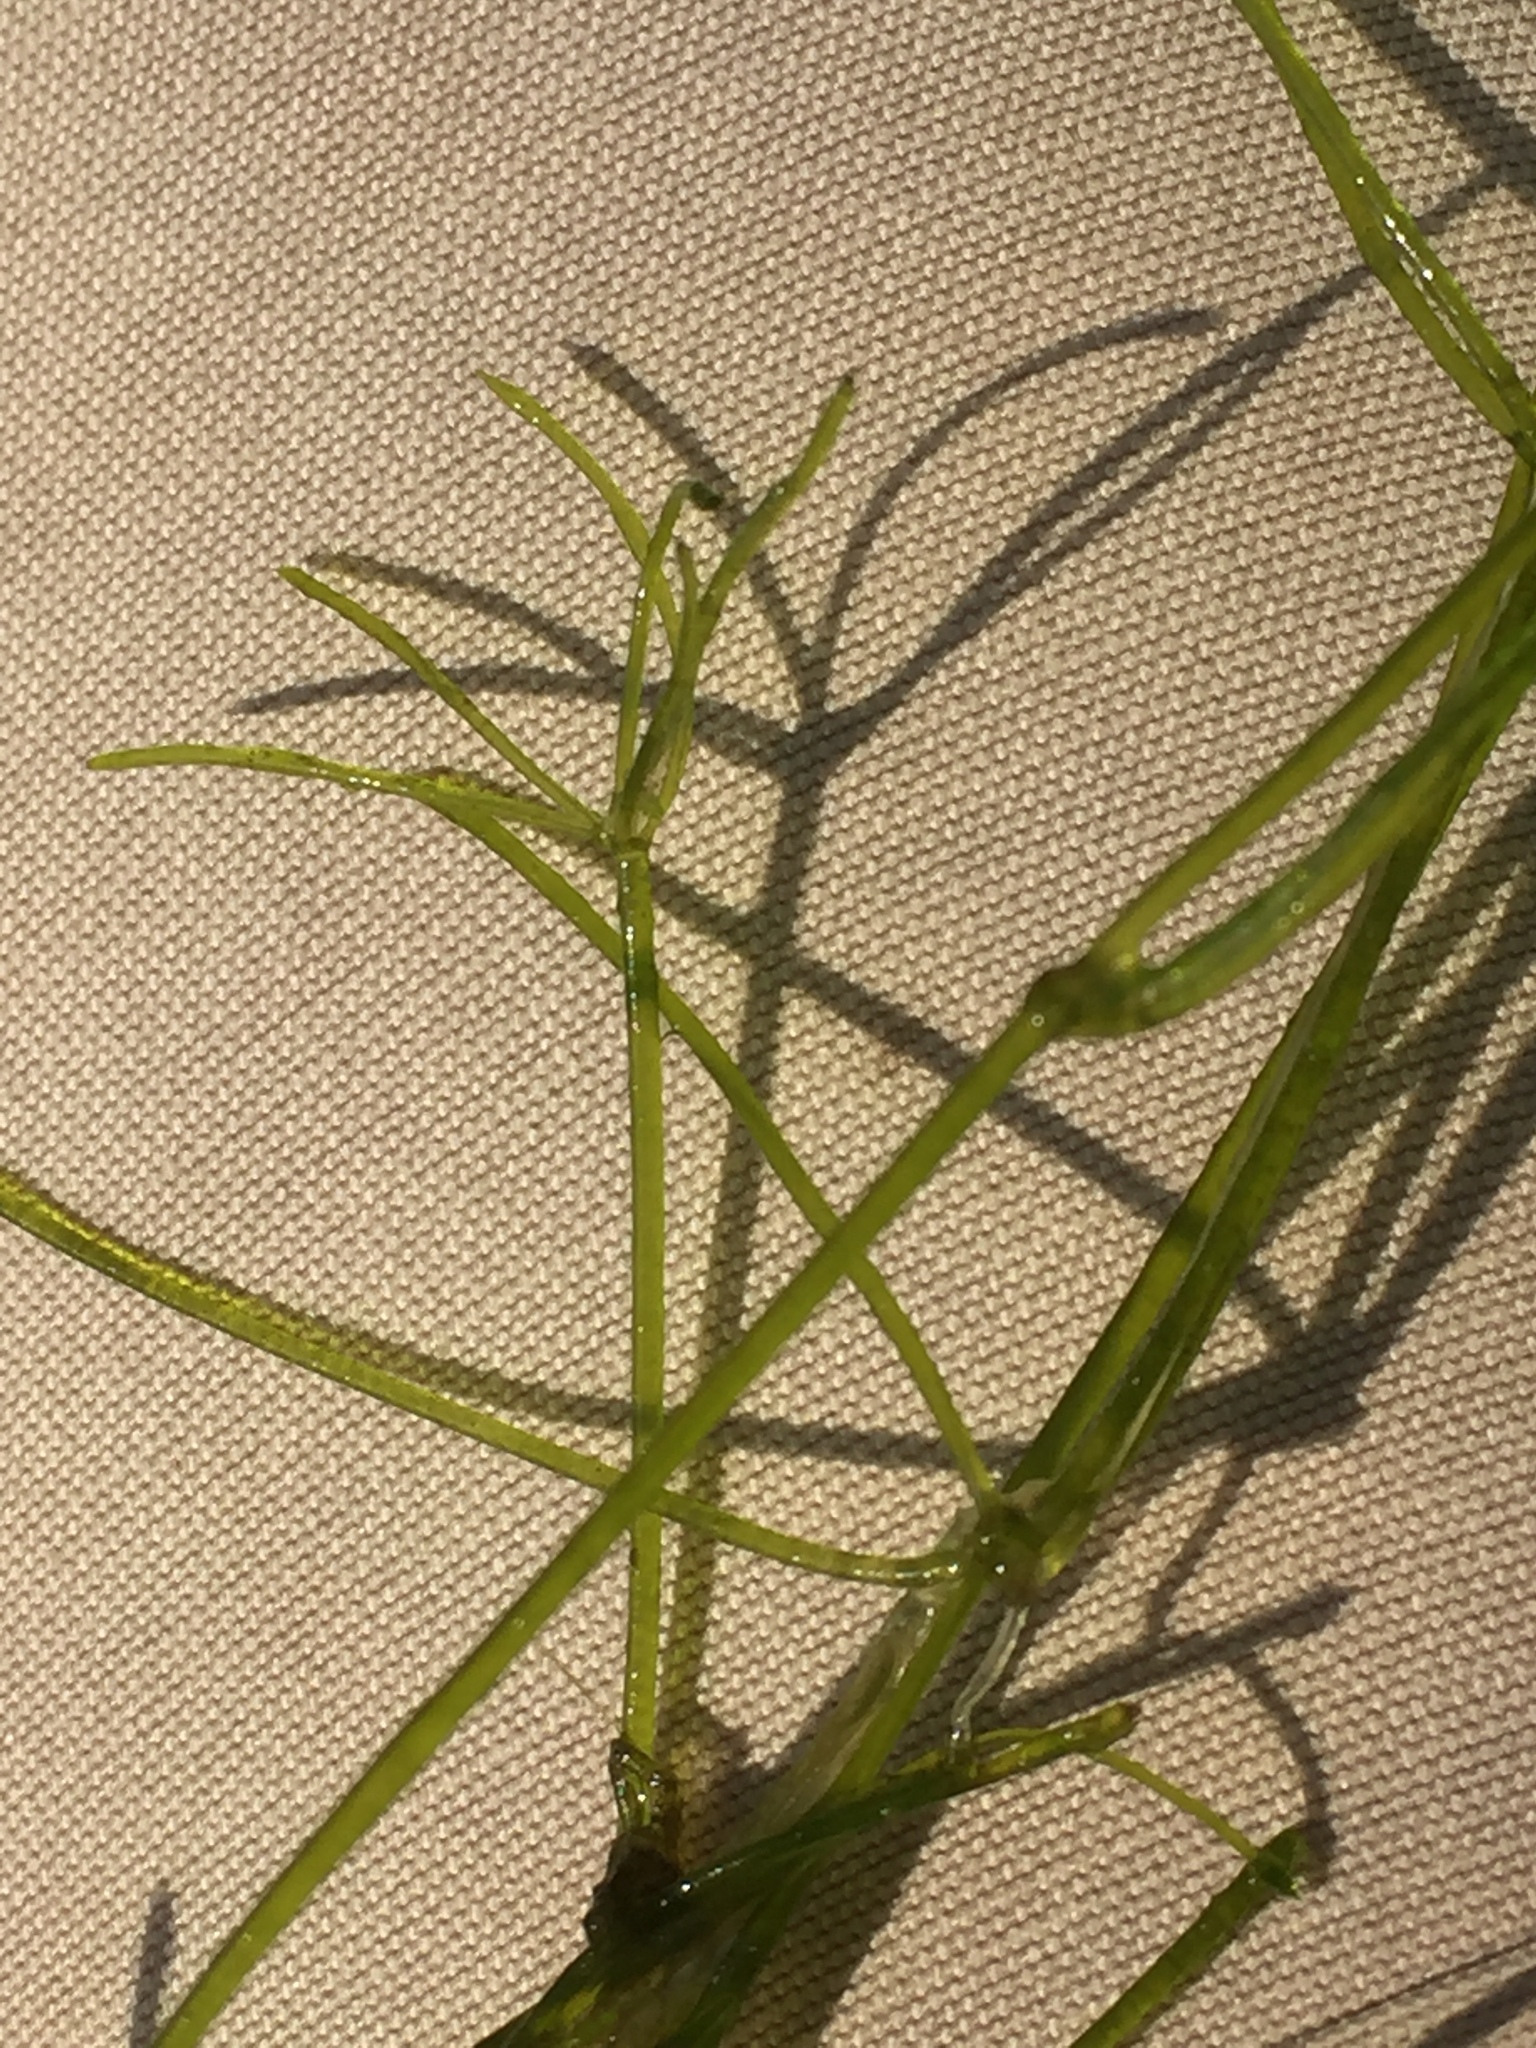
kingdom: Plantae
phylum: Charophyta
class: Charophyceae
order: Charales
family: Characeae
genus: Nitella
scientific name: Nitella translucens
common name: Translucent stonewort
